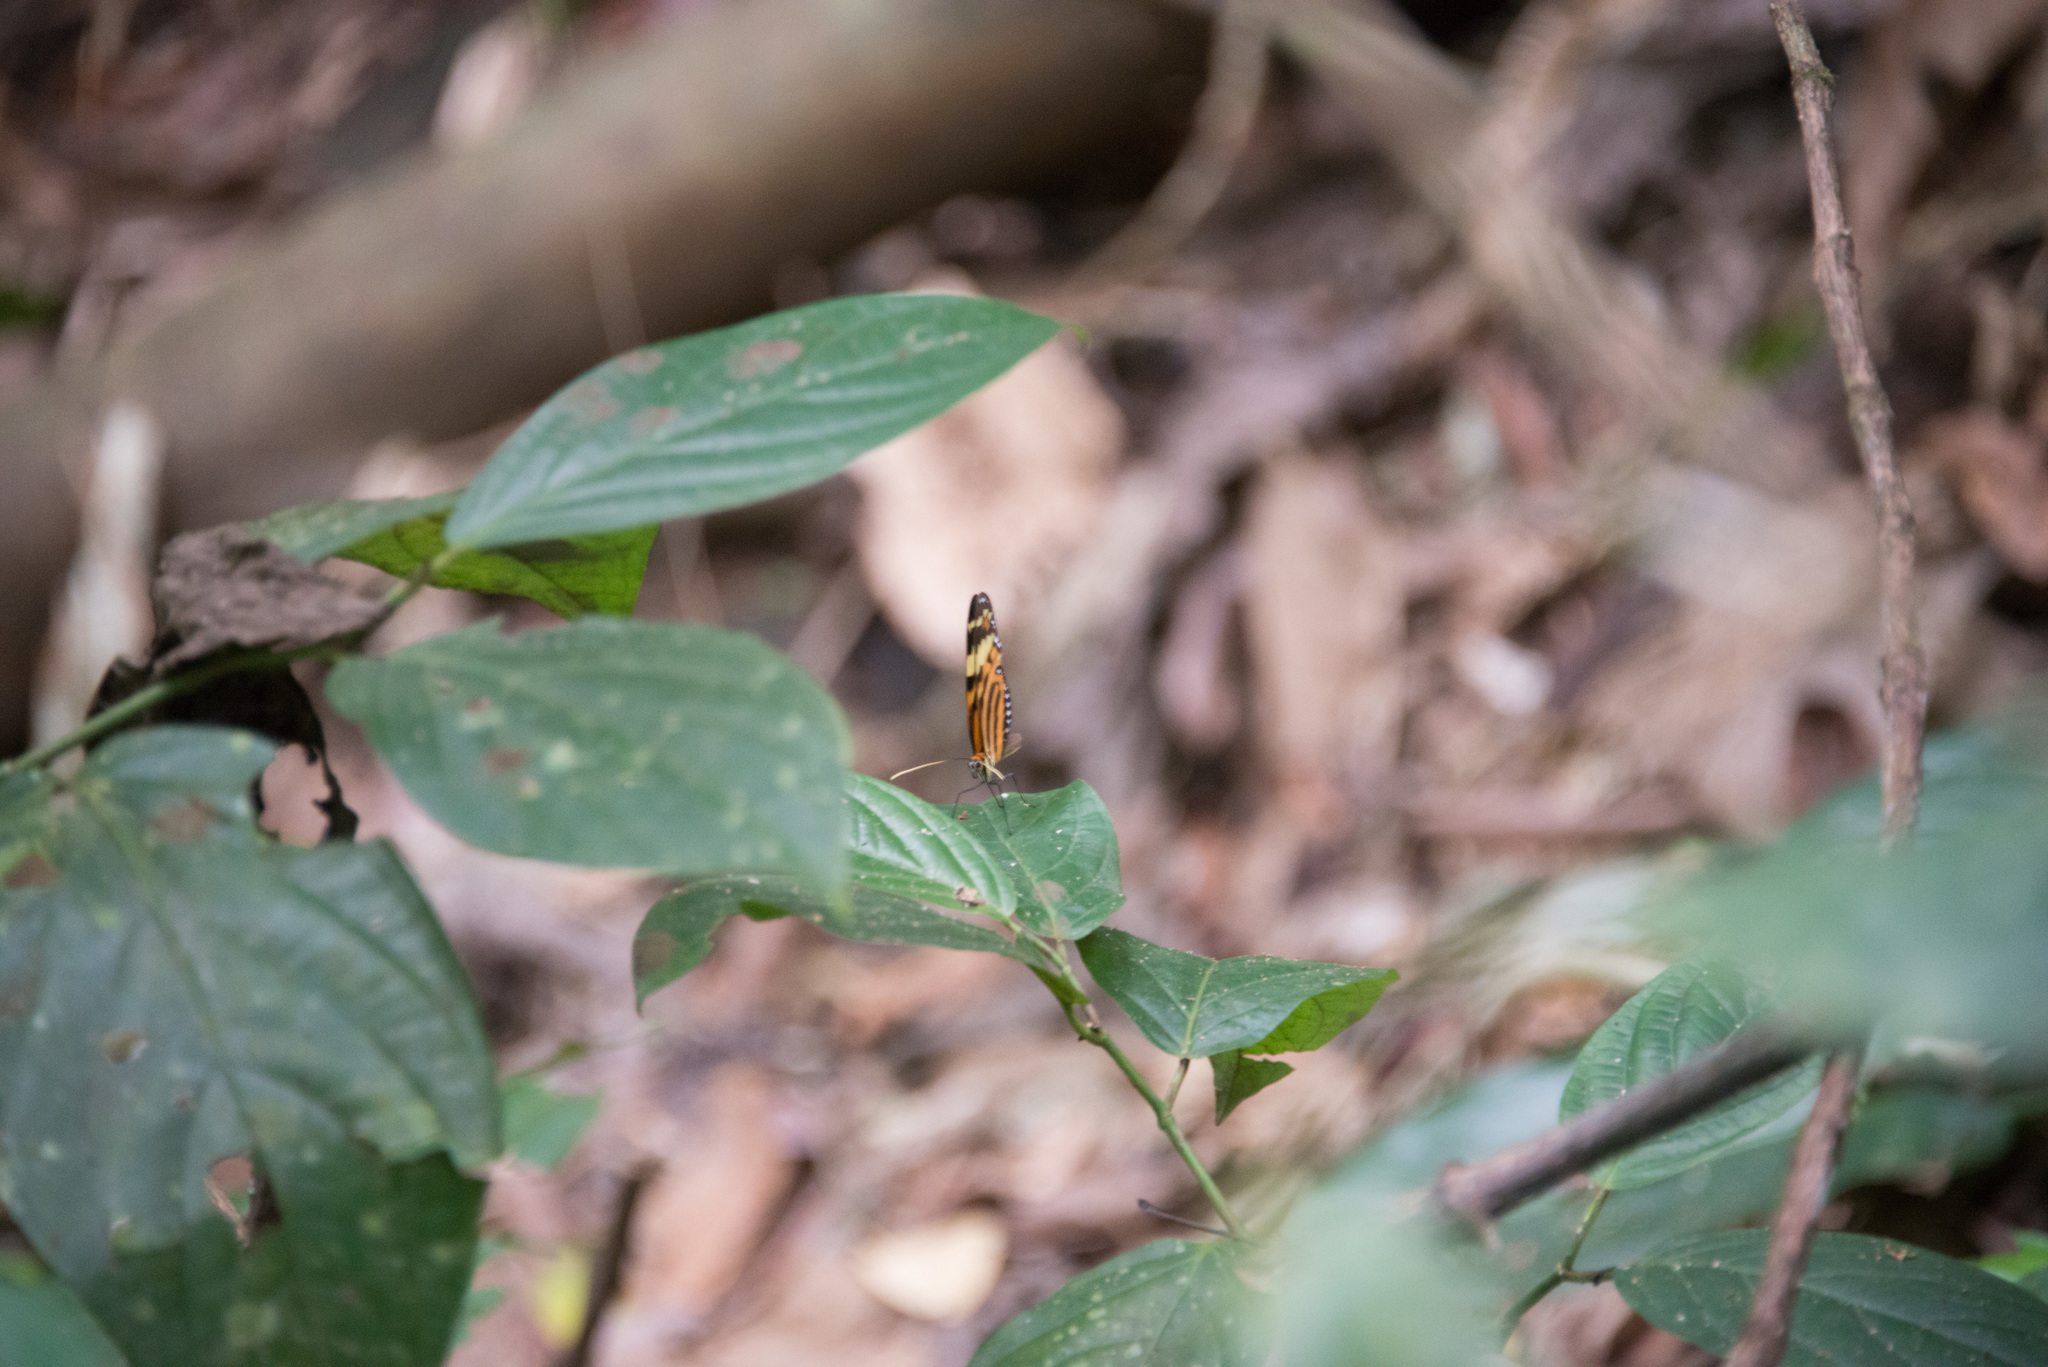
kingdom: Animalia
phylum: Arthropoda
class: Insecta
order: Lepidoptera
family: Nymphalidae
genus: Melinaea
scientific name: Melinaea lilis
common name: Mimic tigerwing
